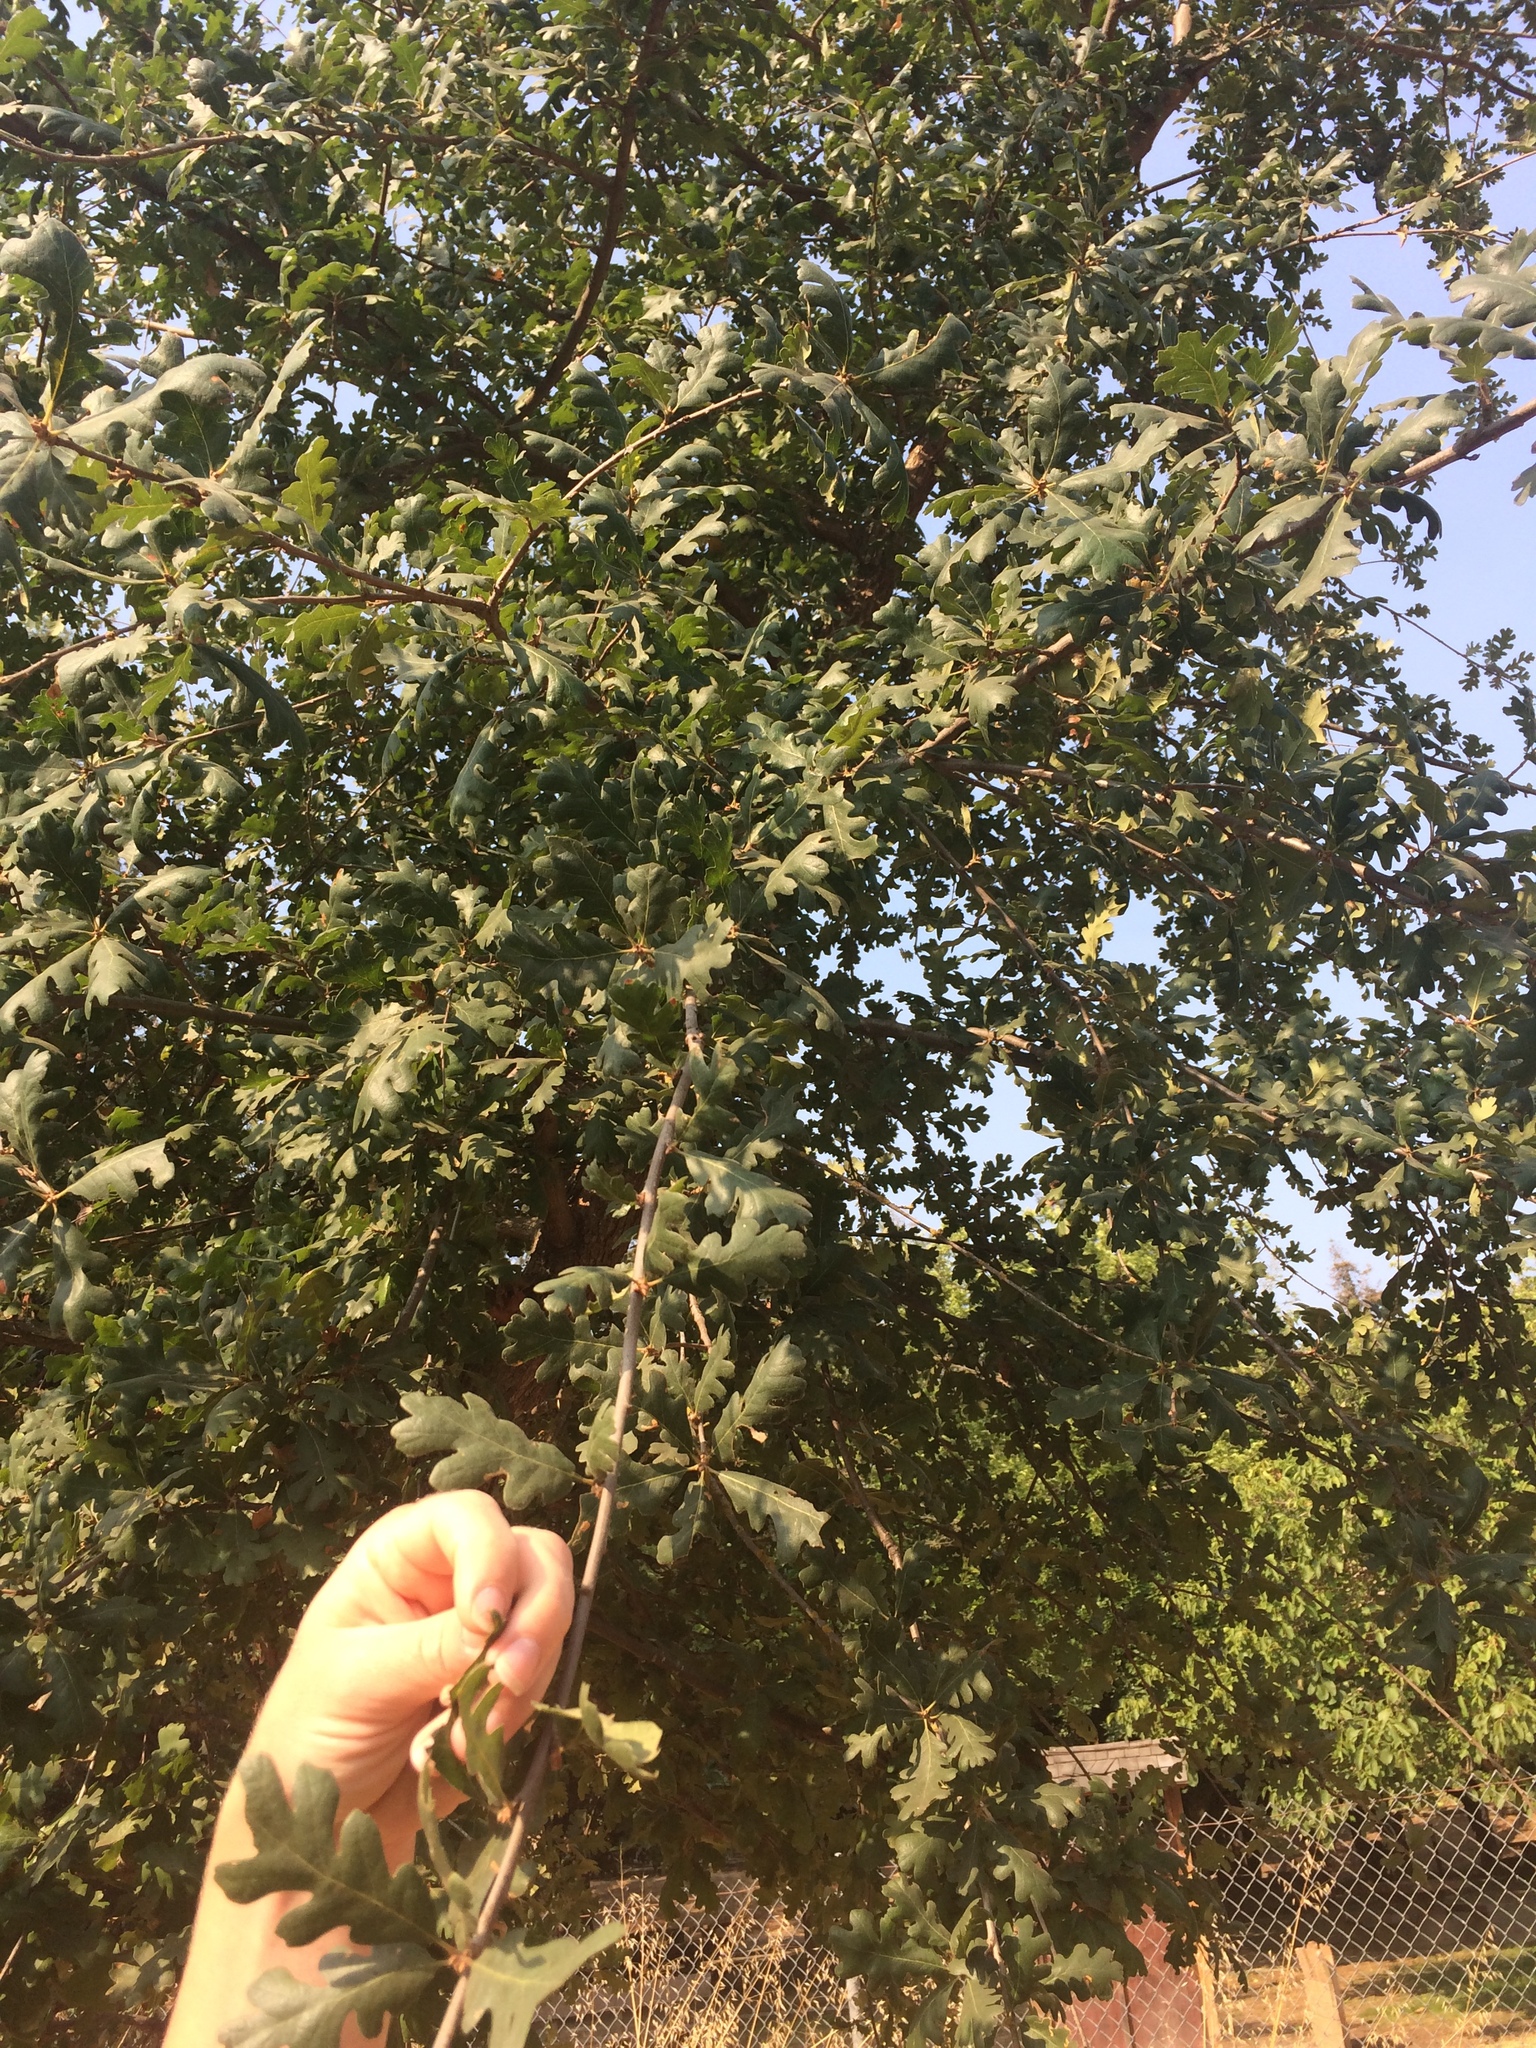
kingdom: Plantae
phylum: Tracheophyta
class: Magnoliopsida
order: Fagales
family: Fagaceae
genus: Quercus
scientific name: Quercus lobata
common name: Valley oak
